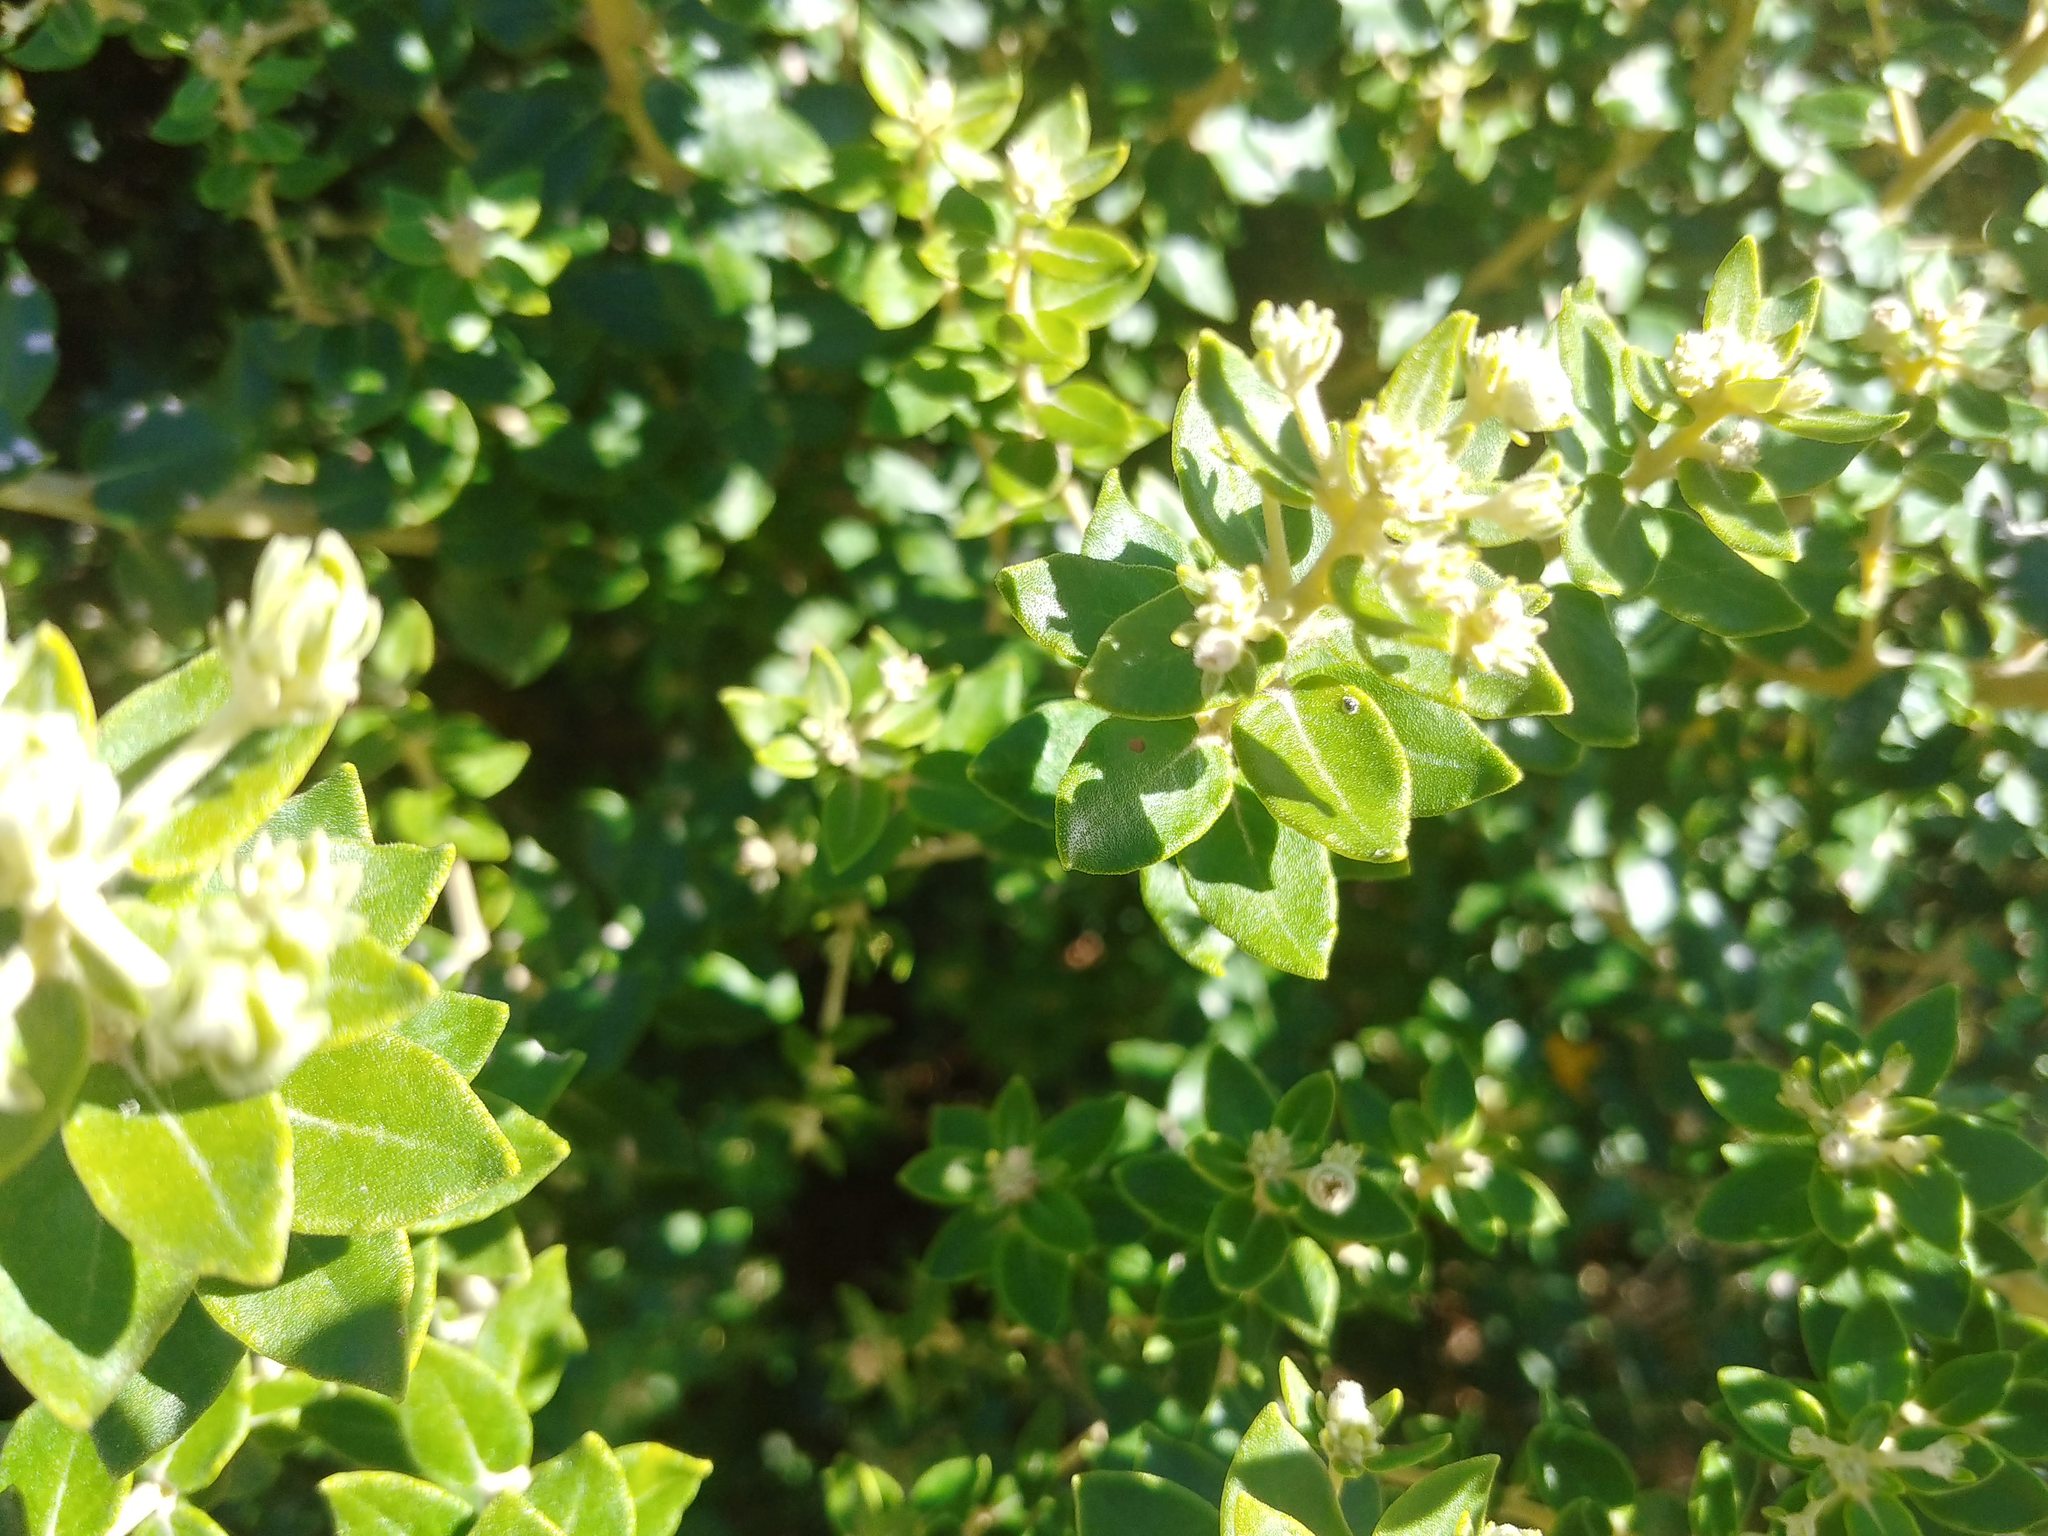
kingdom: Plantae
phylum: Tracheophyta
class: Magnoliopsida
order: Rosales
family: Rhamnaceae
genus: Phylica
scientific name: Phylica buxifolia
